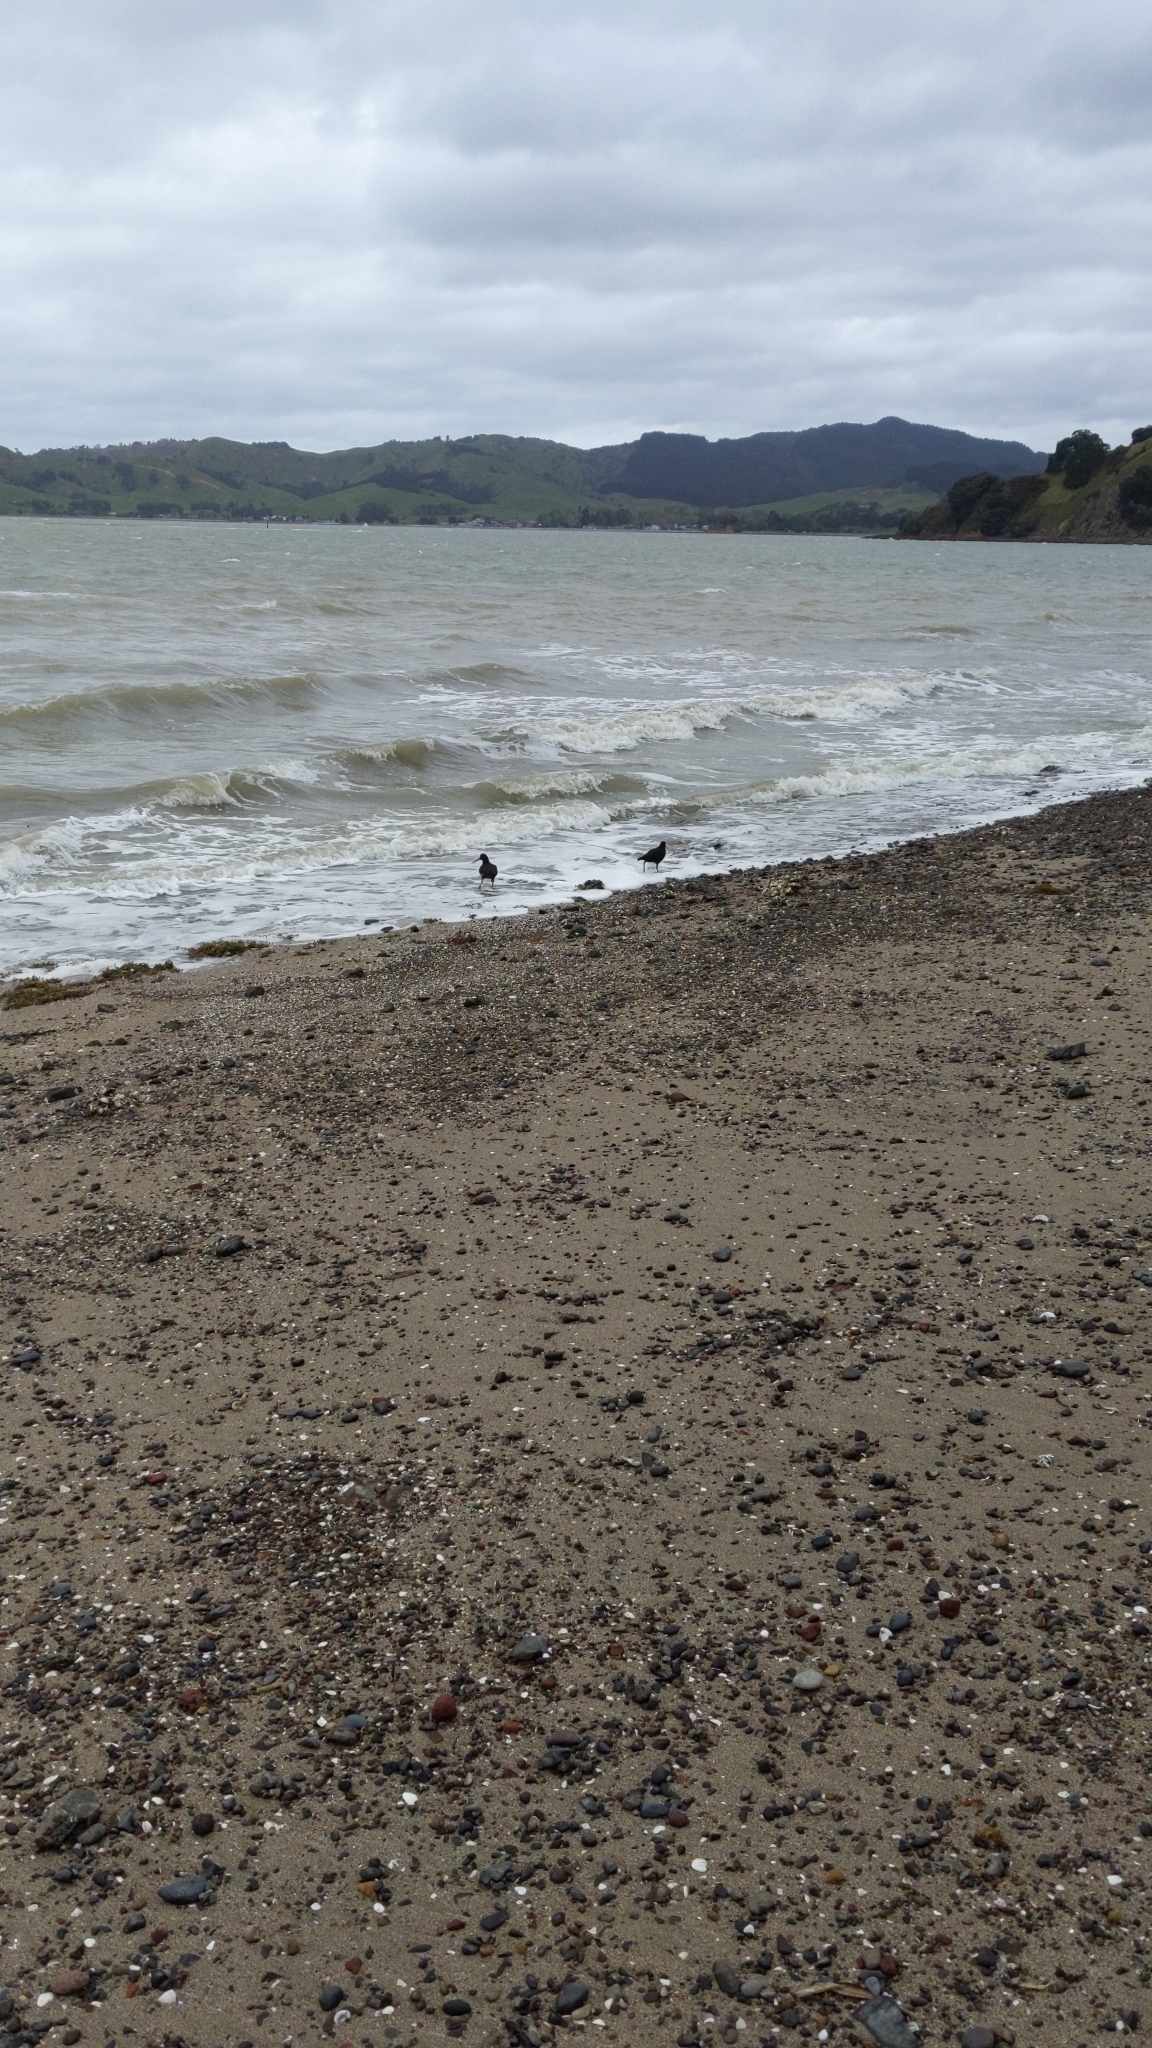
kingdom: Animalia
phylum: Chordata
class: Aves
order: Charadriiformes
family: Haematopodidae
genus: Haematopus
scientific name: Haematopus unicolor
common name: Variable oystercatcher
